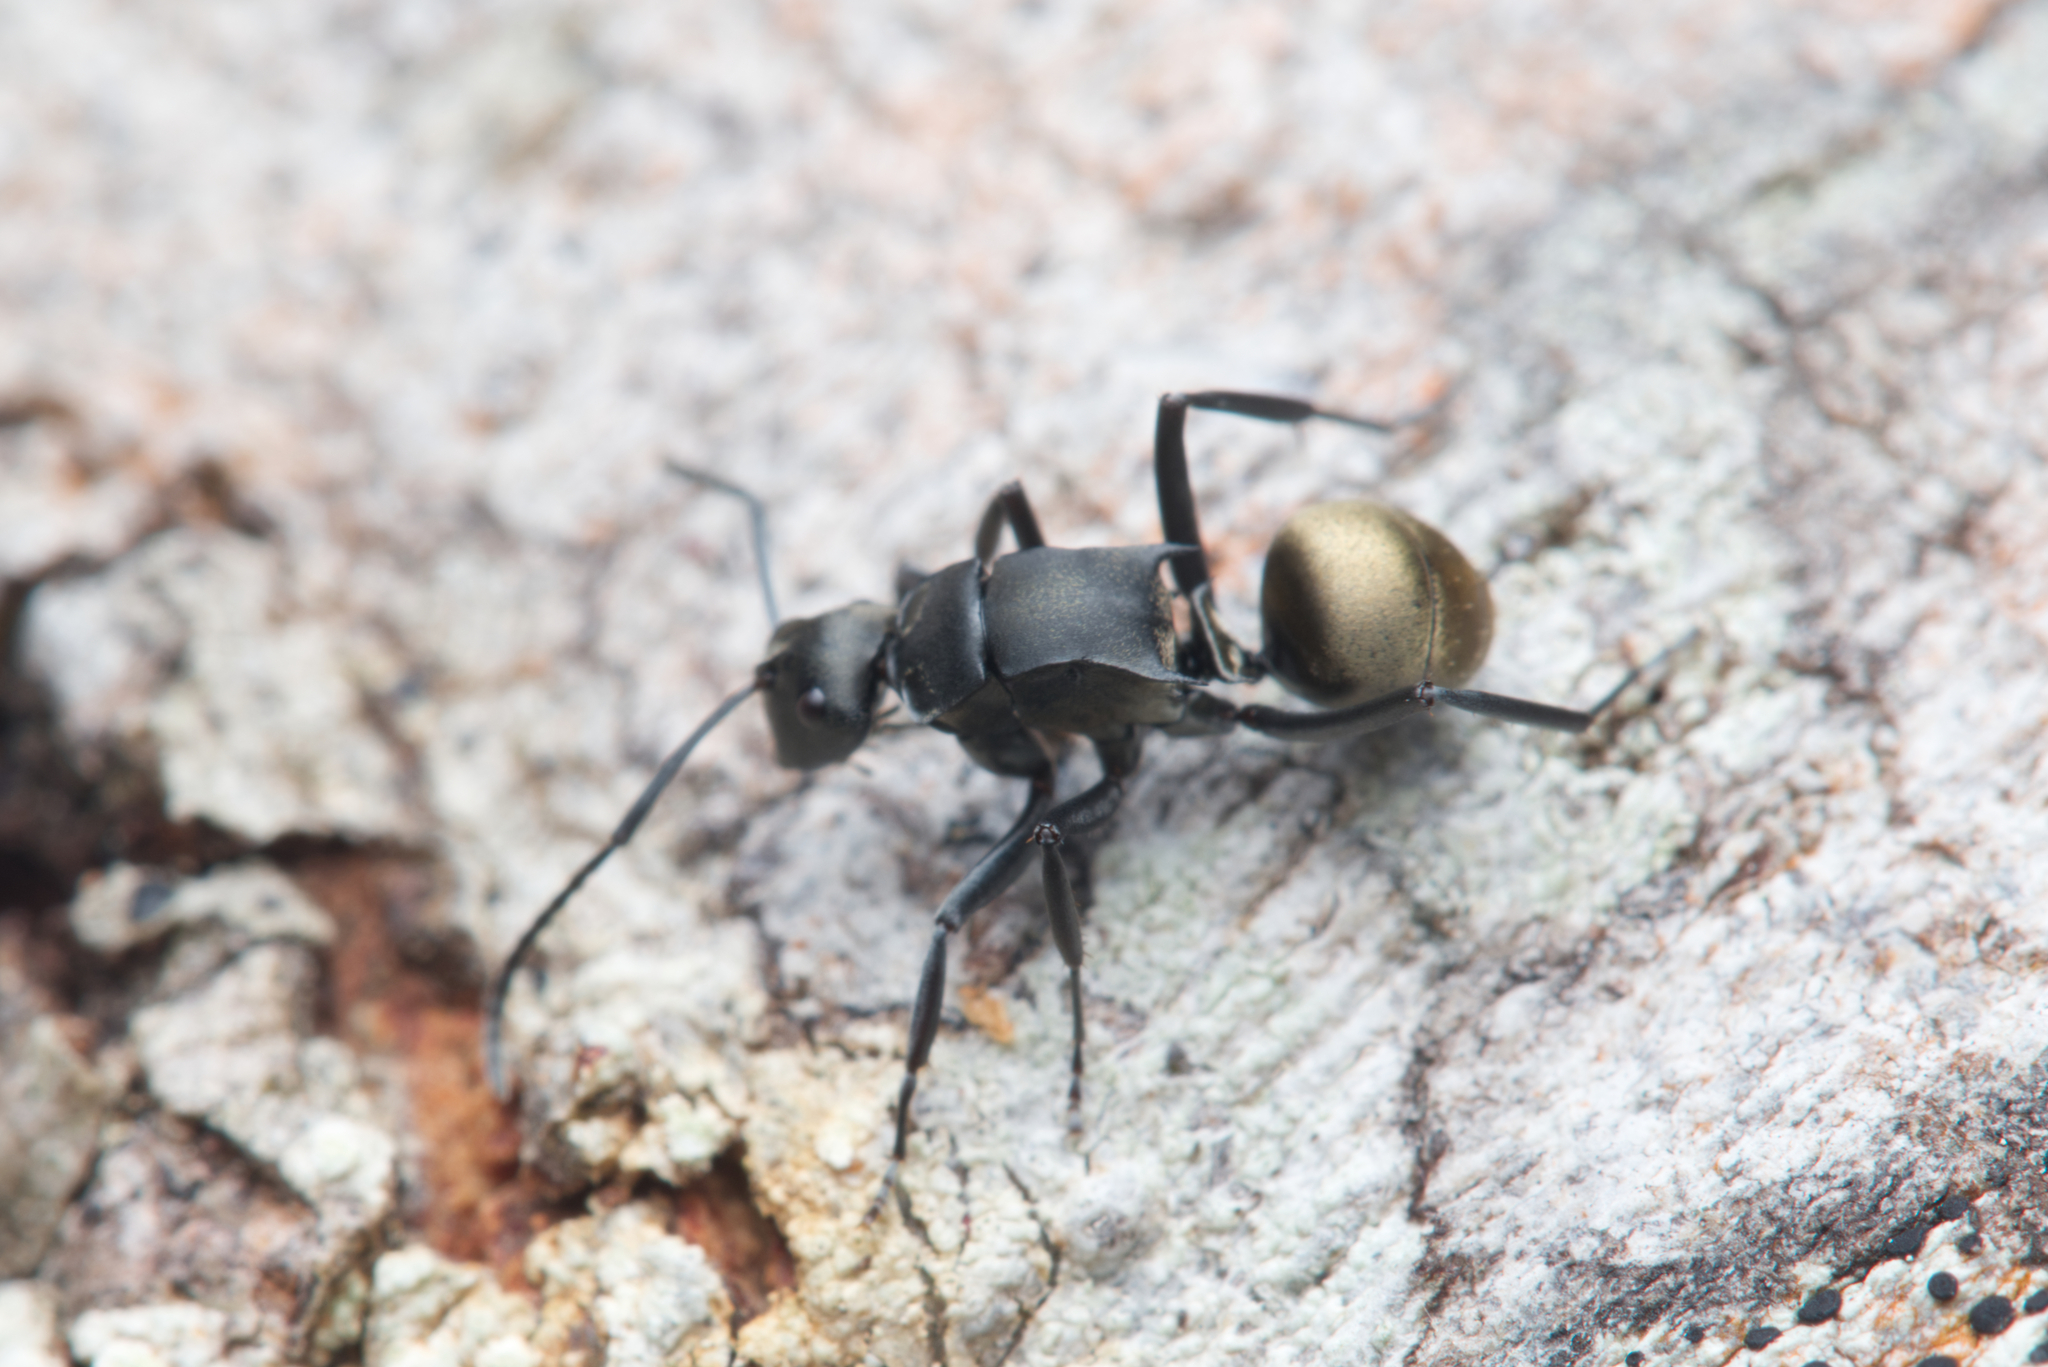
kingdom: Animalia
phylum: Arthropoda
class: Insecta
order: Hymenoptera
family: Formicidae
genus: Polyrhachis
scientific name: Polyrhachis tubifera
